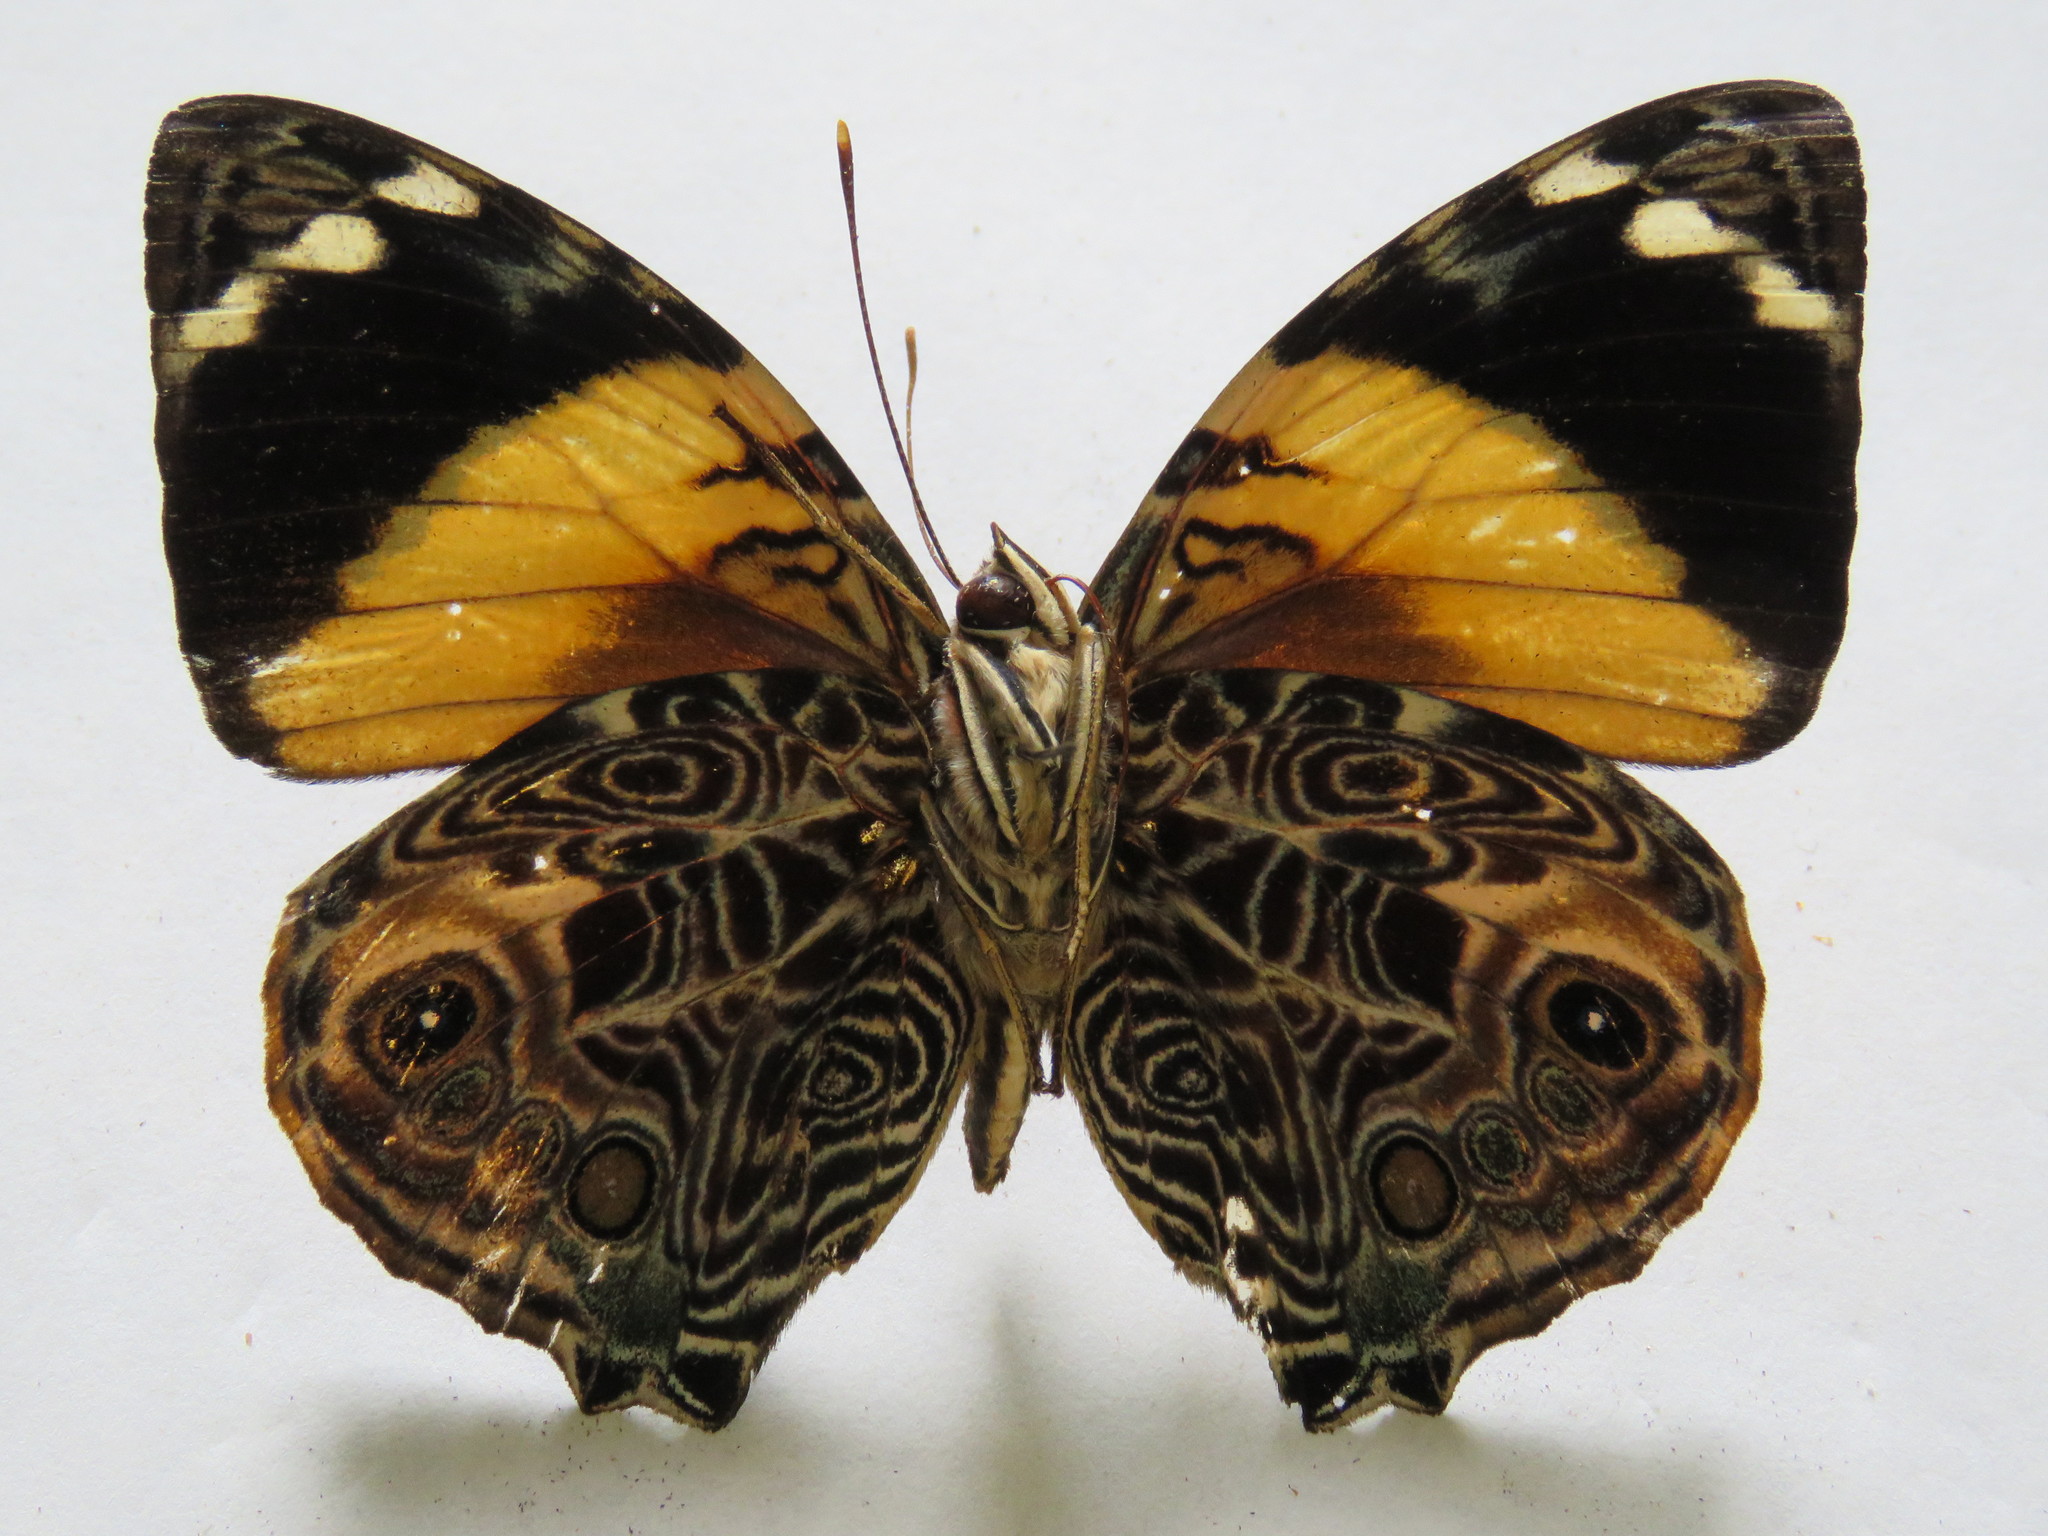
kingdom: Animalia
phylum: Arthropoda
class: Insecta
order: Lepidoptera
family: Nymphalidae
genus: Smyrna
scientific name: Smyrna blomfildia
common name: Blomfild's beauty
